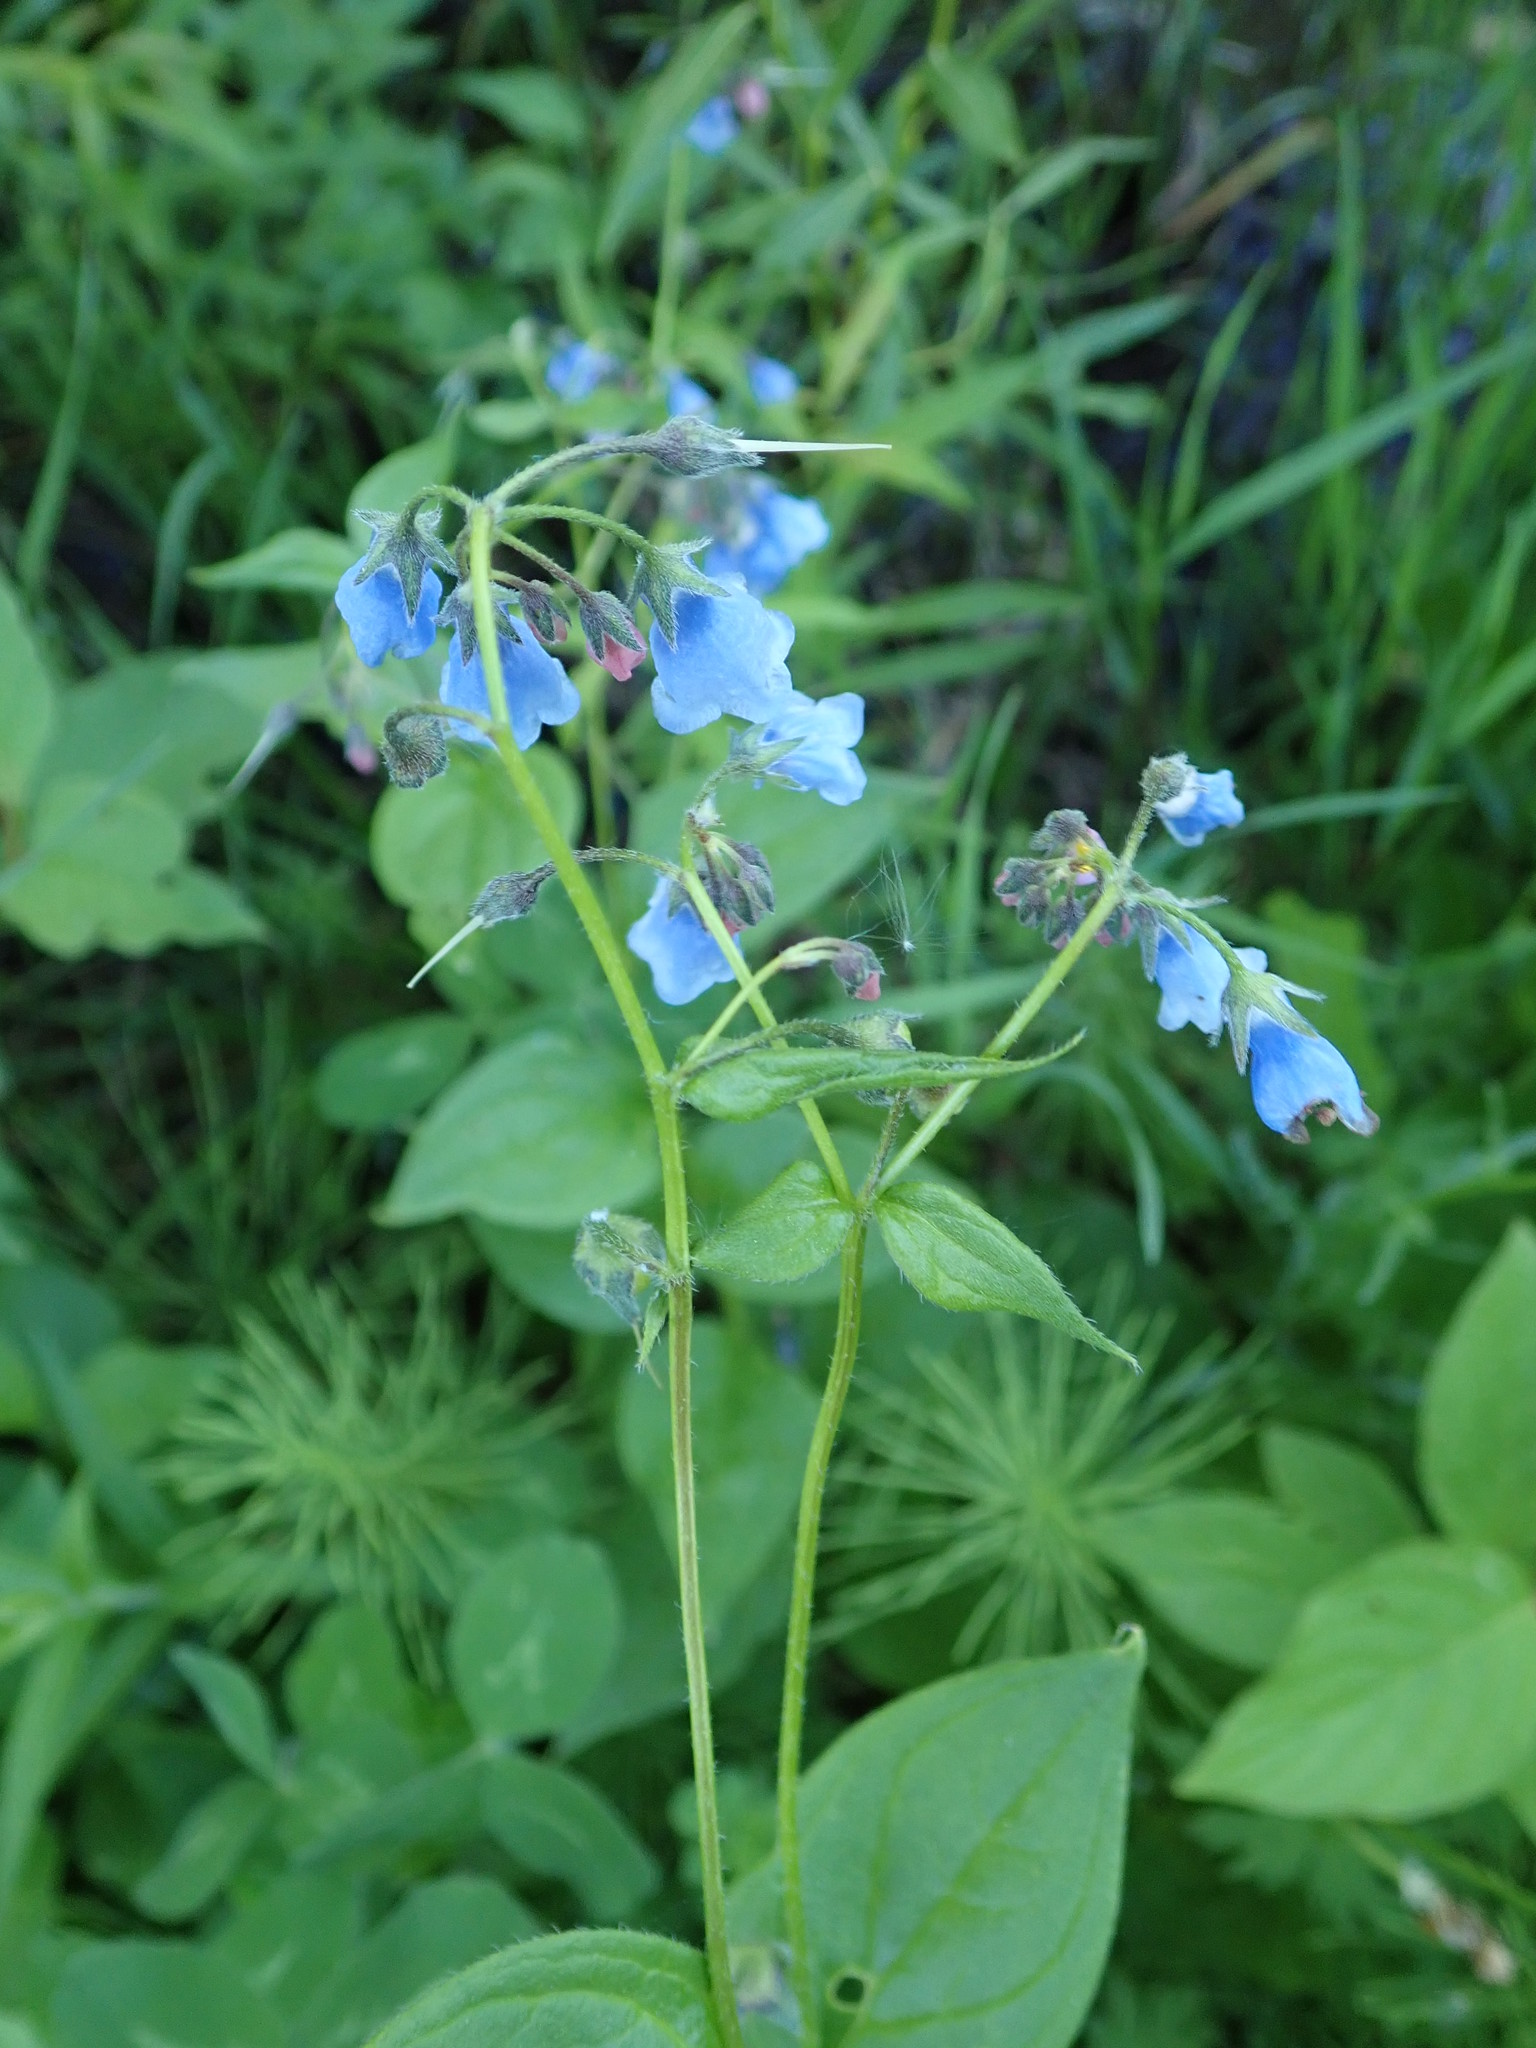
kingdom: Plantae
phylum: Tracheophyta
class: Magnoliopsida
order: Boraginales
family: Boraginaceae
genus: Mertensia
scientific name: Mertensia paniculata
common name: Panicled bluebells
